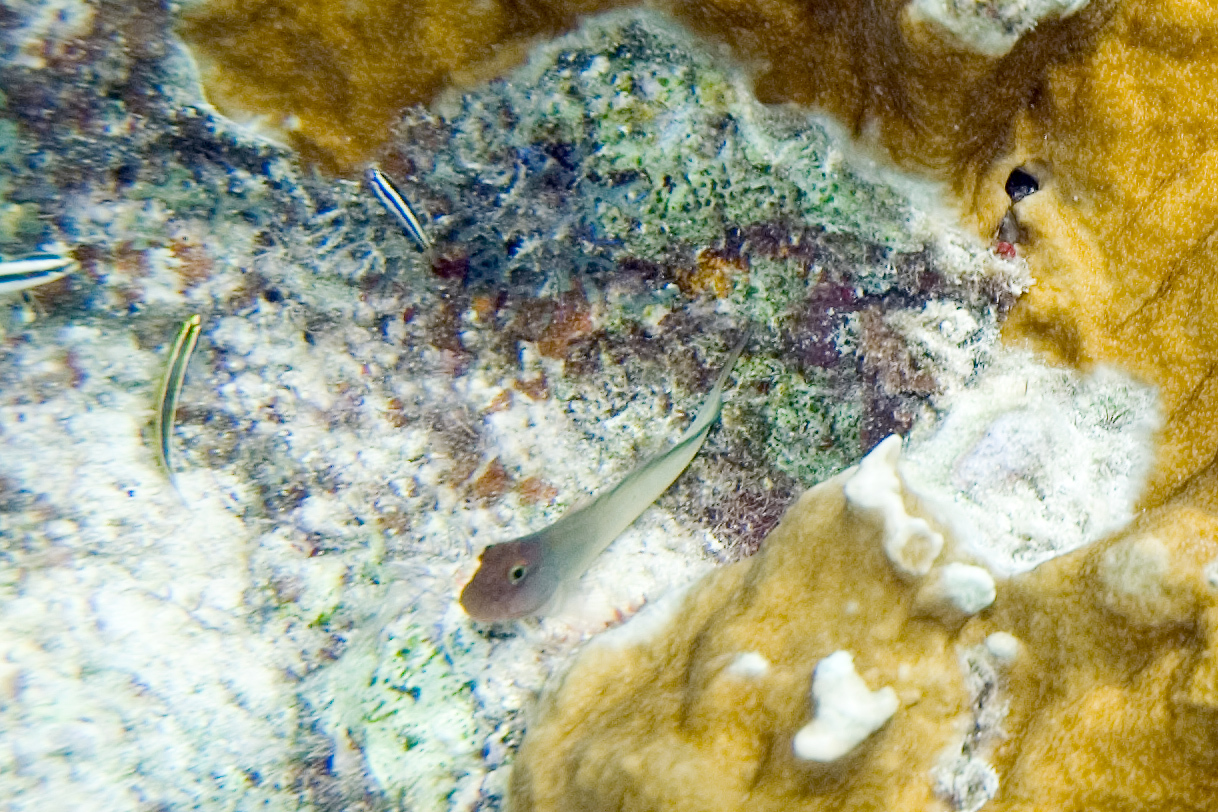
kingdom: Animalia
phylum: Chordata
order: Perciformes
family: Blenniidae
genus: Ophioblennius
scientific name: Ophioblennius macclurei
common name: Redlip blenny
